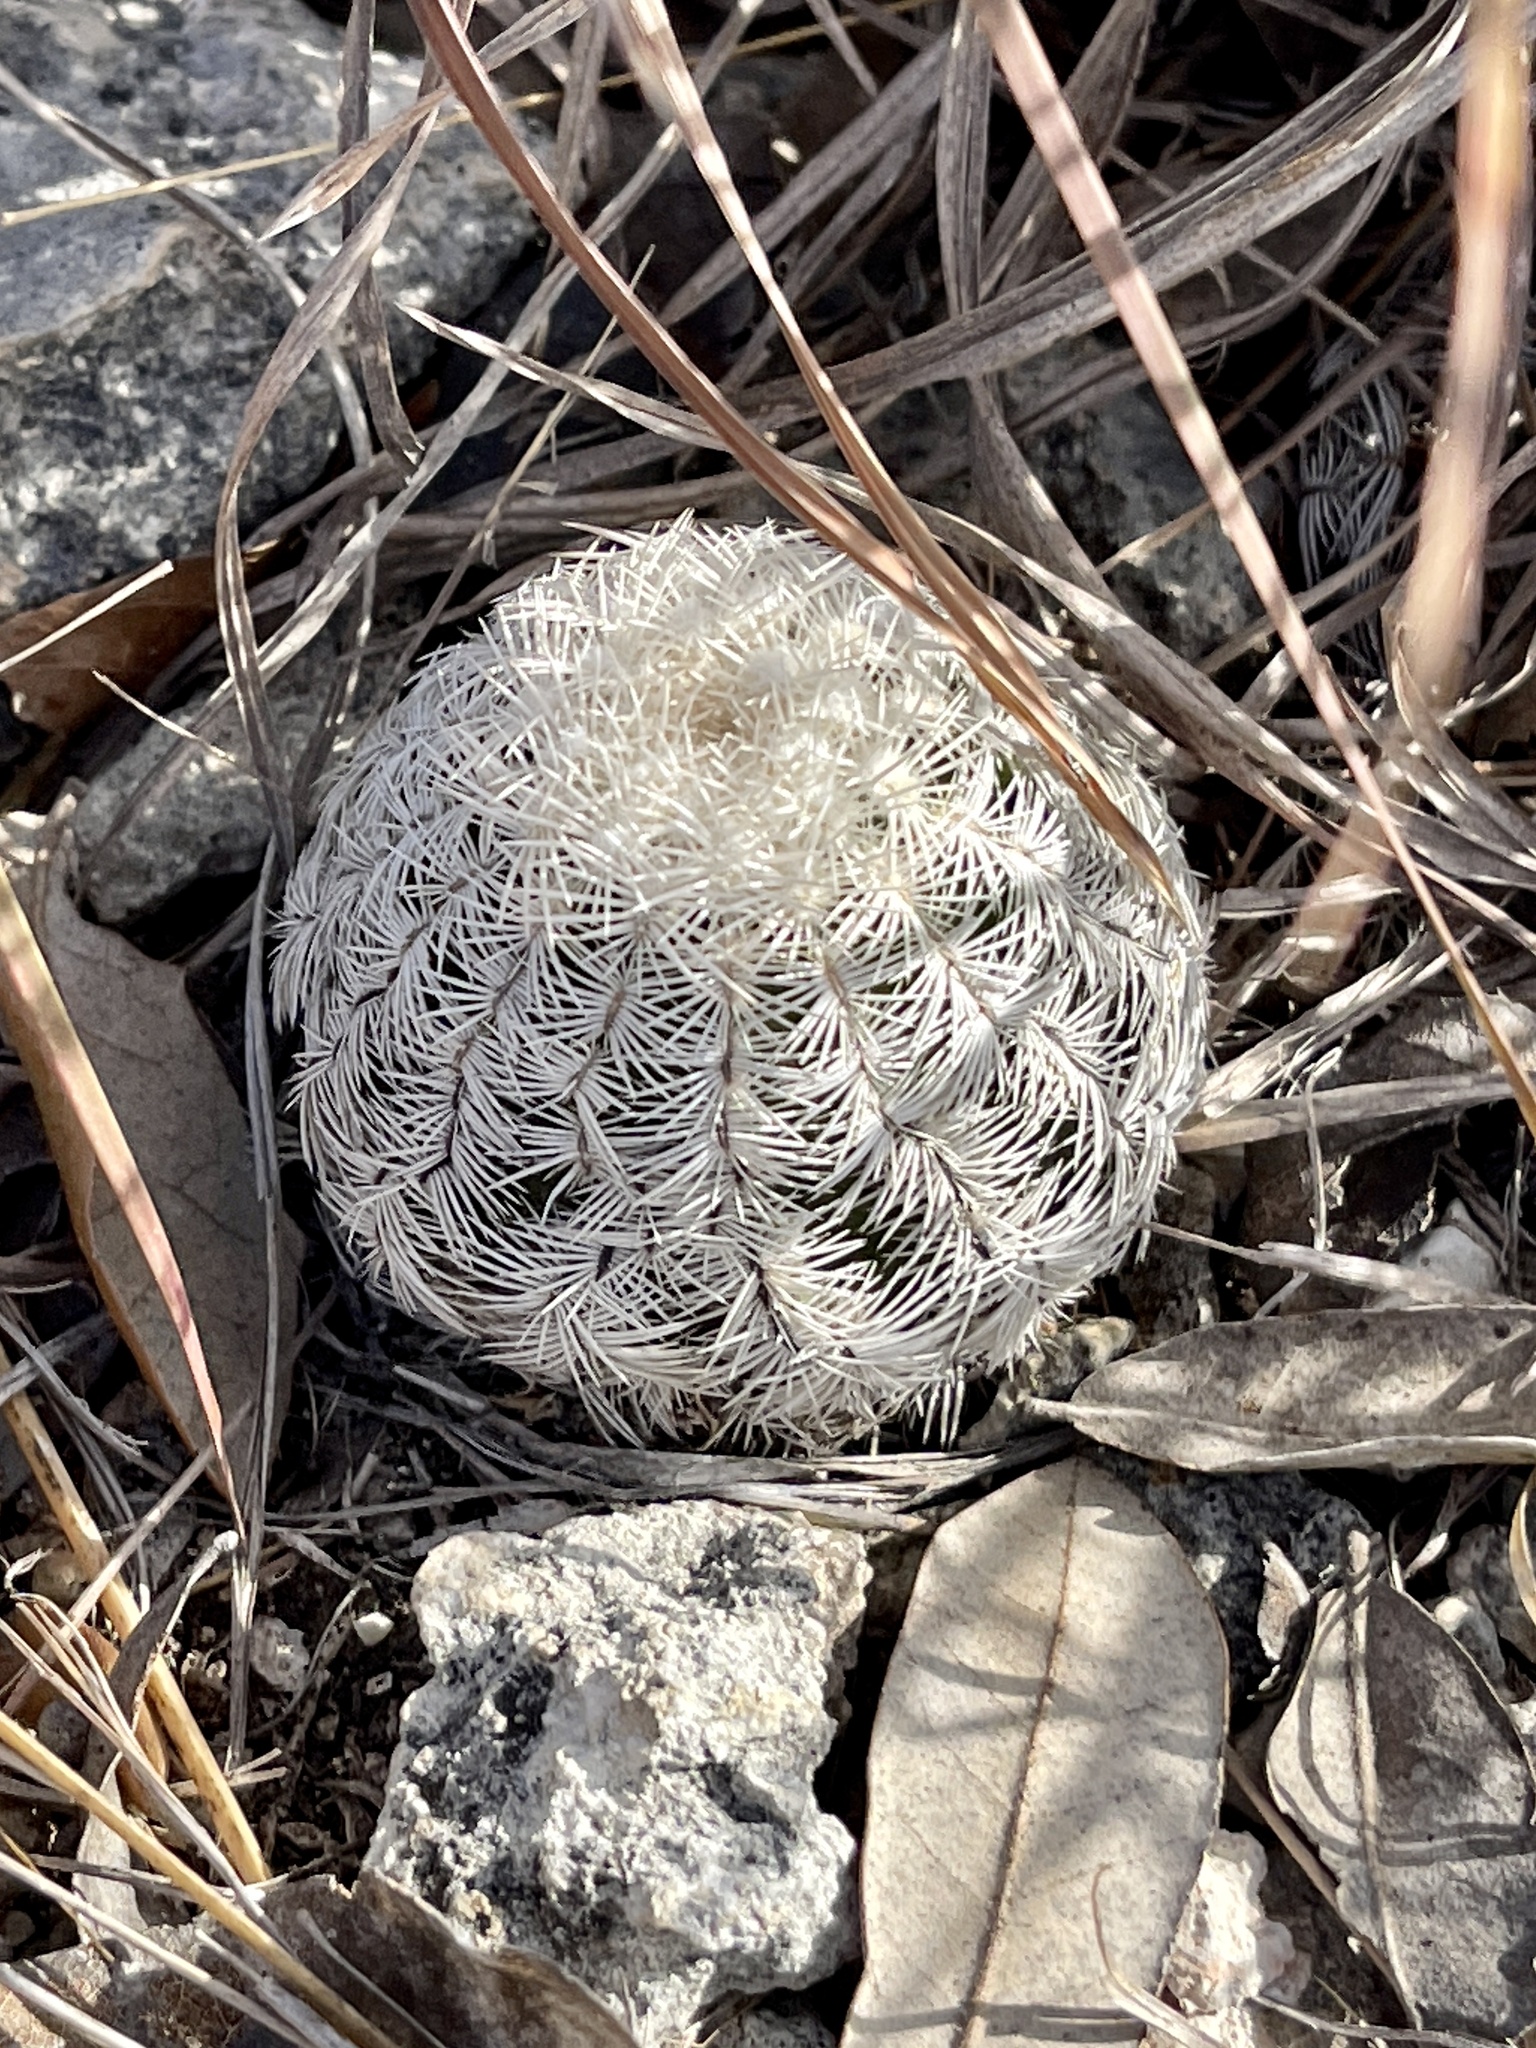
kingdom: Plantae
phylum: Tracheophyta
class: Magnoliopsida
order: Caryophyllales
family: Cactaceae
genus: Echinocereus
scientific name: Echinocereus reichenbachii
